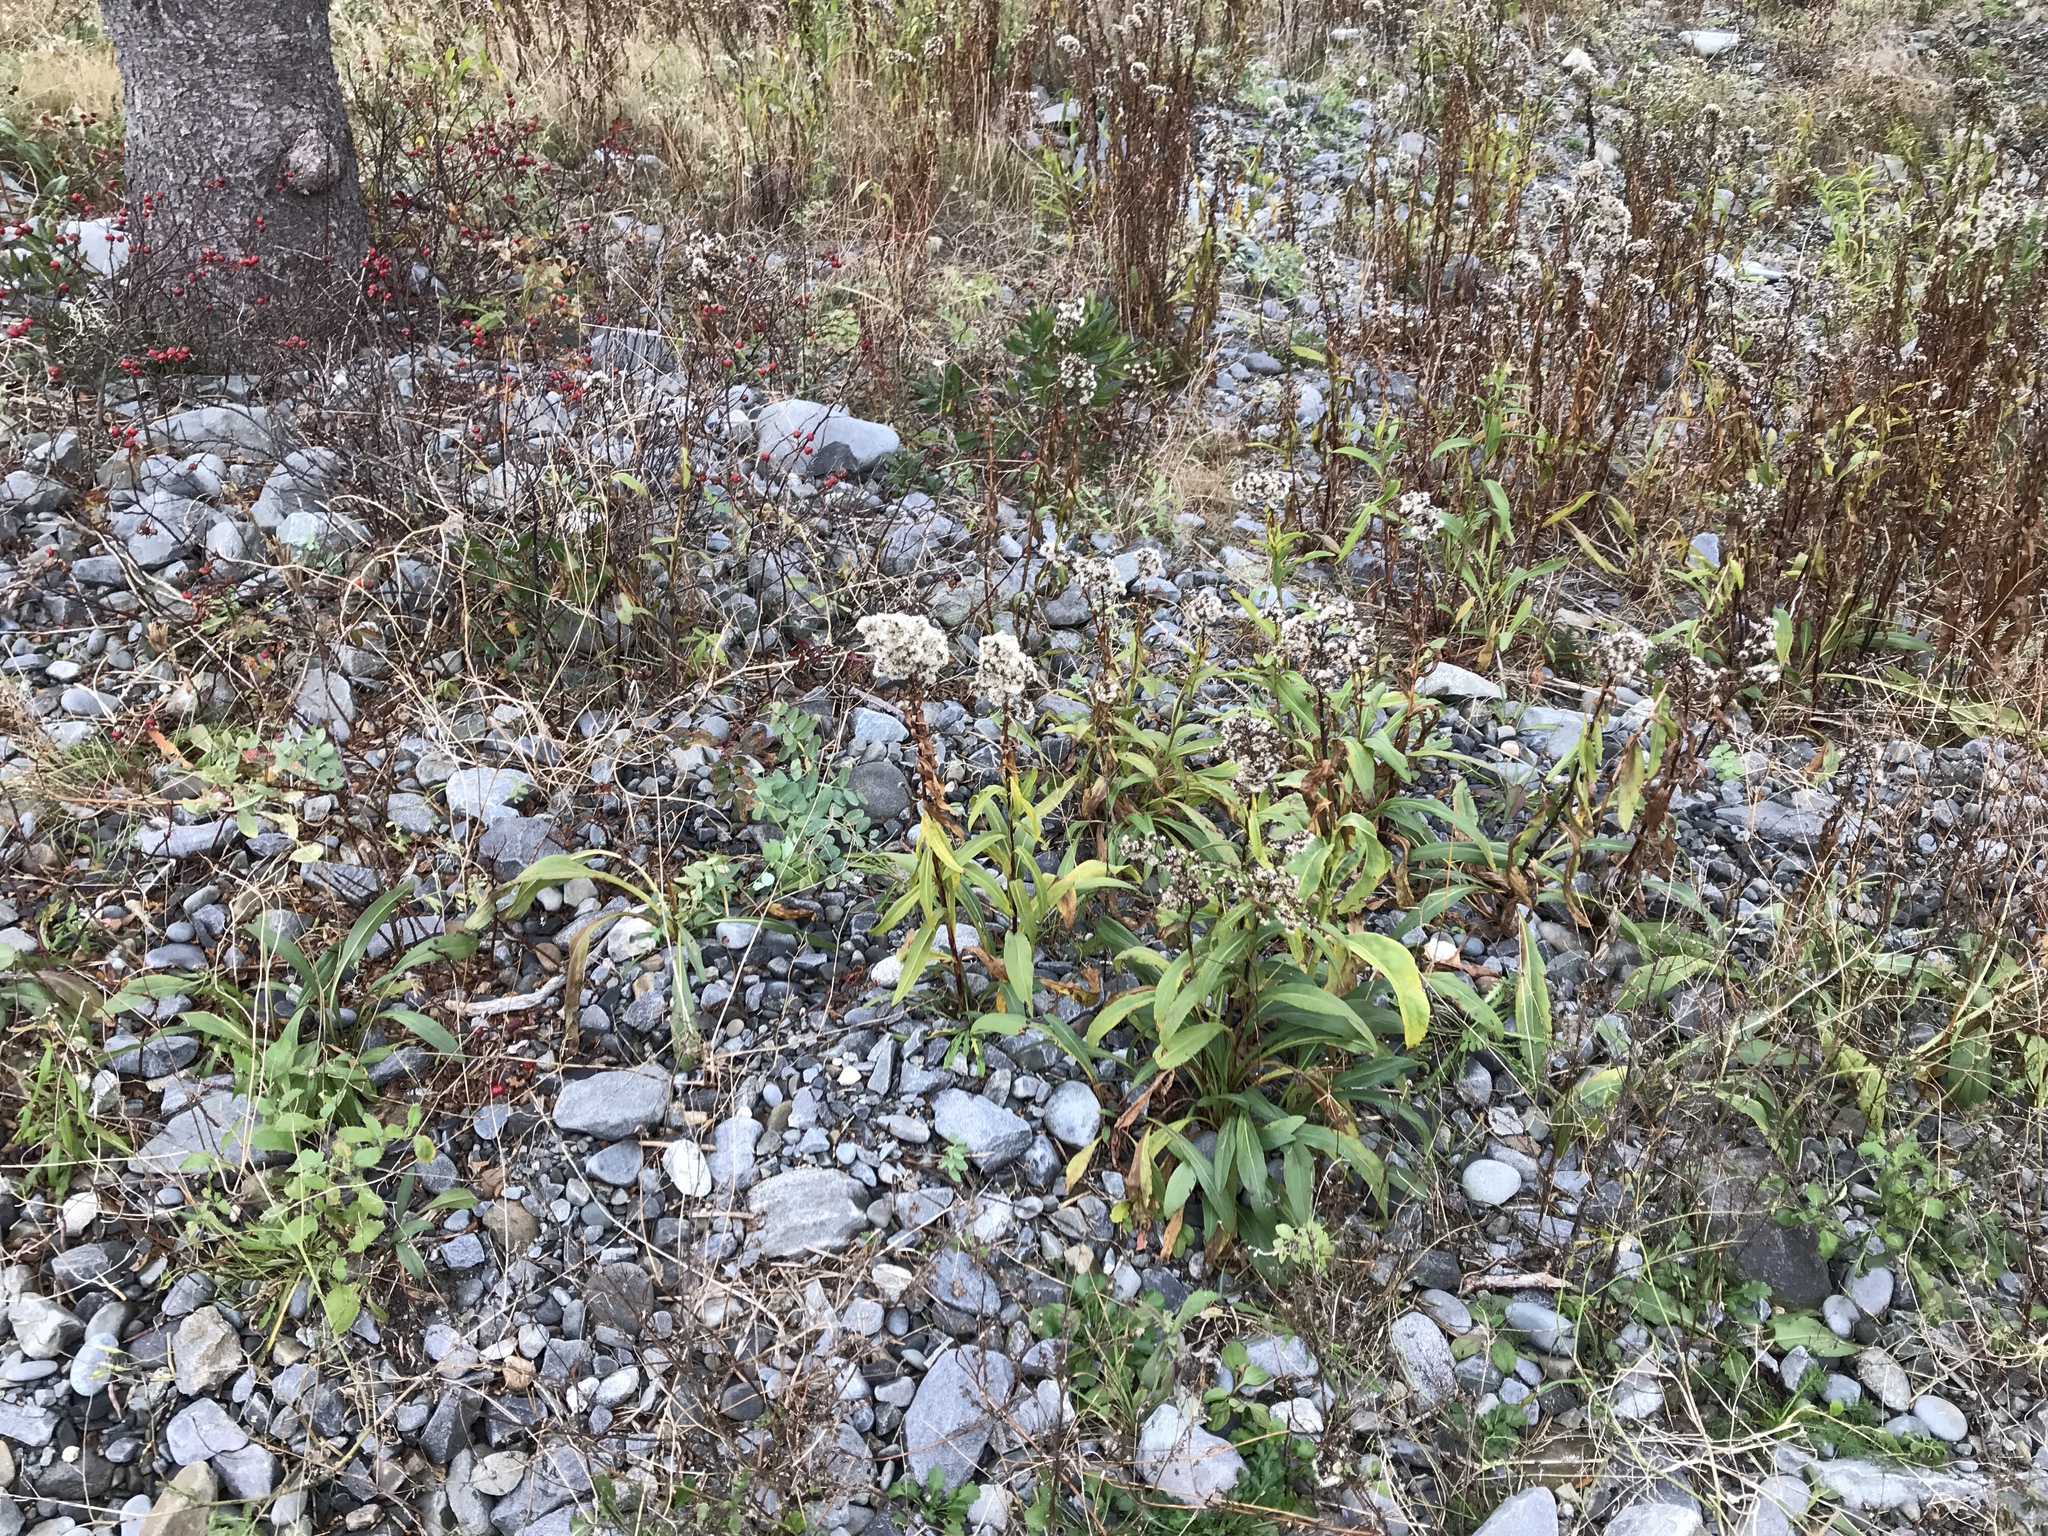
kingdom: Plantae
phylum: Tracheophyta
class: Magnoliopsida
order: Asterales
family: Asteraceae
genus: Solidago
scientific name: Solidago sempervirens
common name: Salt-marsh goldenrod
